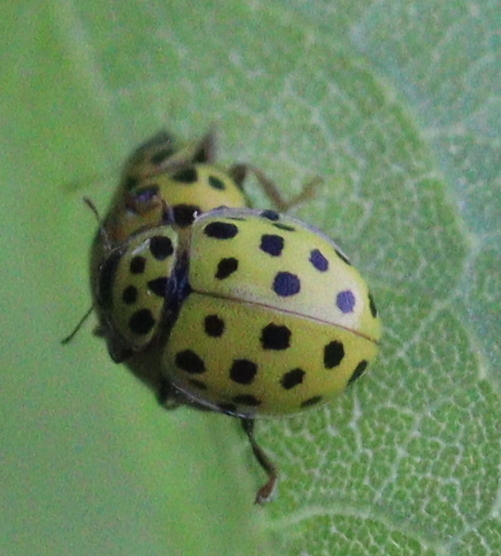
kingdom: Animalia
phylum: Arthropoda
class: Insecta
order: Coleoptera
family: Coccinellidae
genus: Psyllobora
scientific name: Psyllobora vigintiduopunctata
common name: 22-spot ladybird
